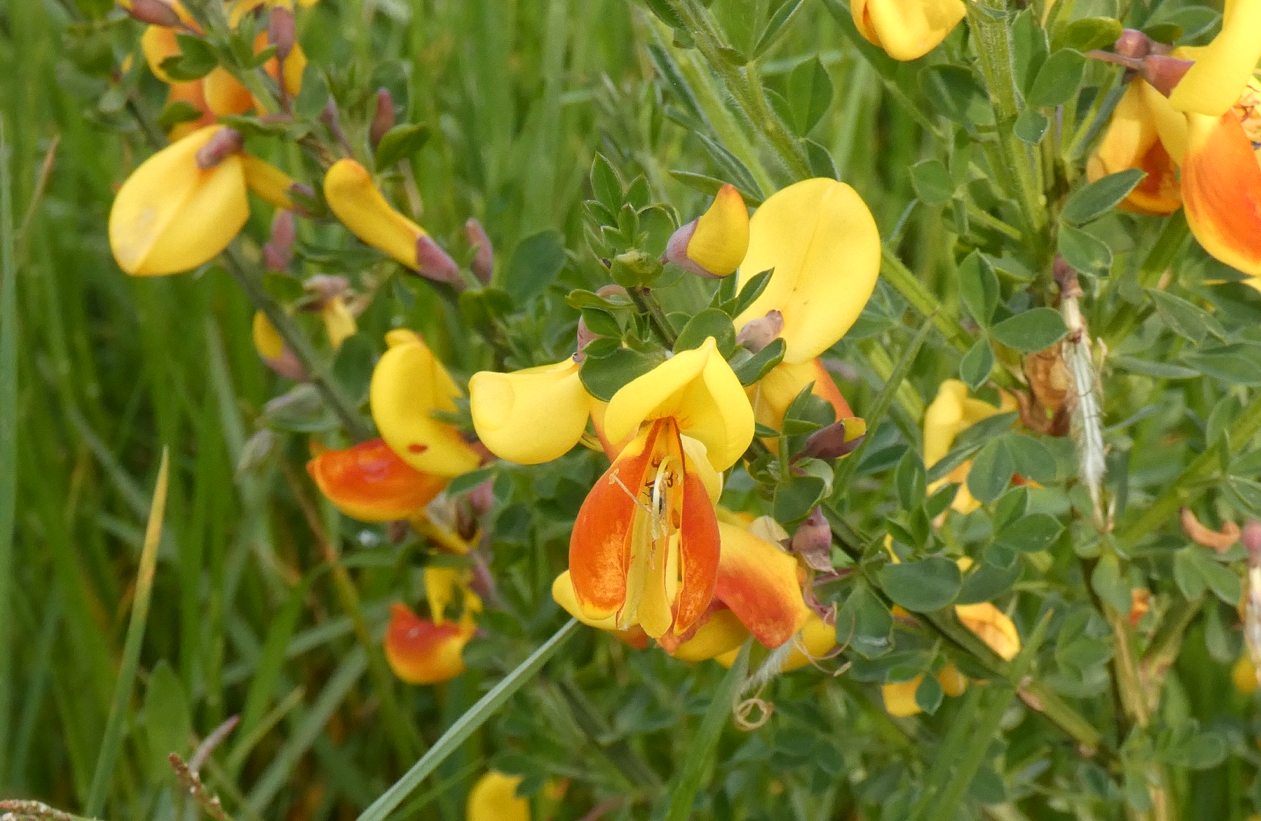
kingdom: Plantae
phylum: Tracheophyta
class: Magnoliopsida
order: Fabales
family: Fabaceae
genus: Cytisus
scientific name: Cytisus scoparius
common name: Scotch broom
